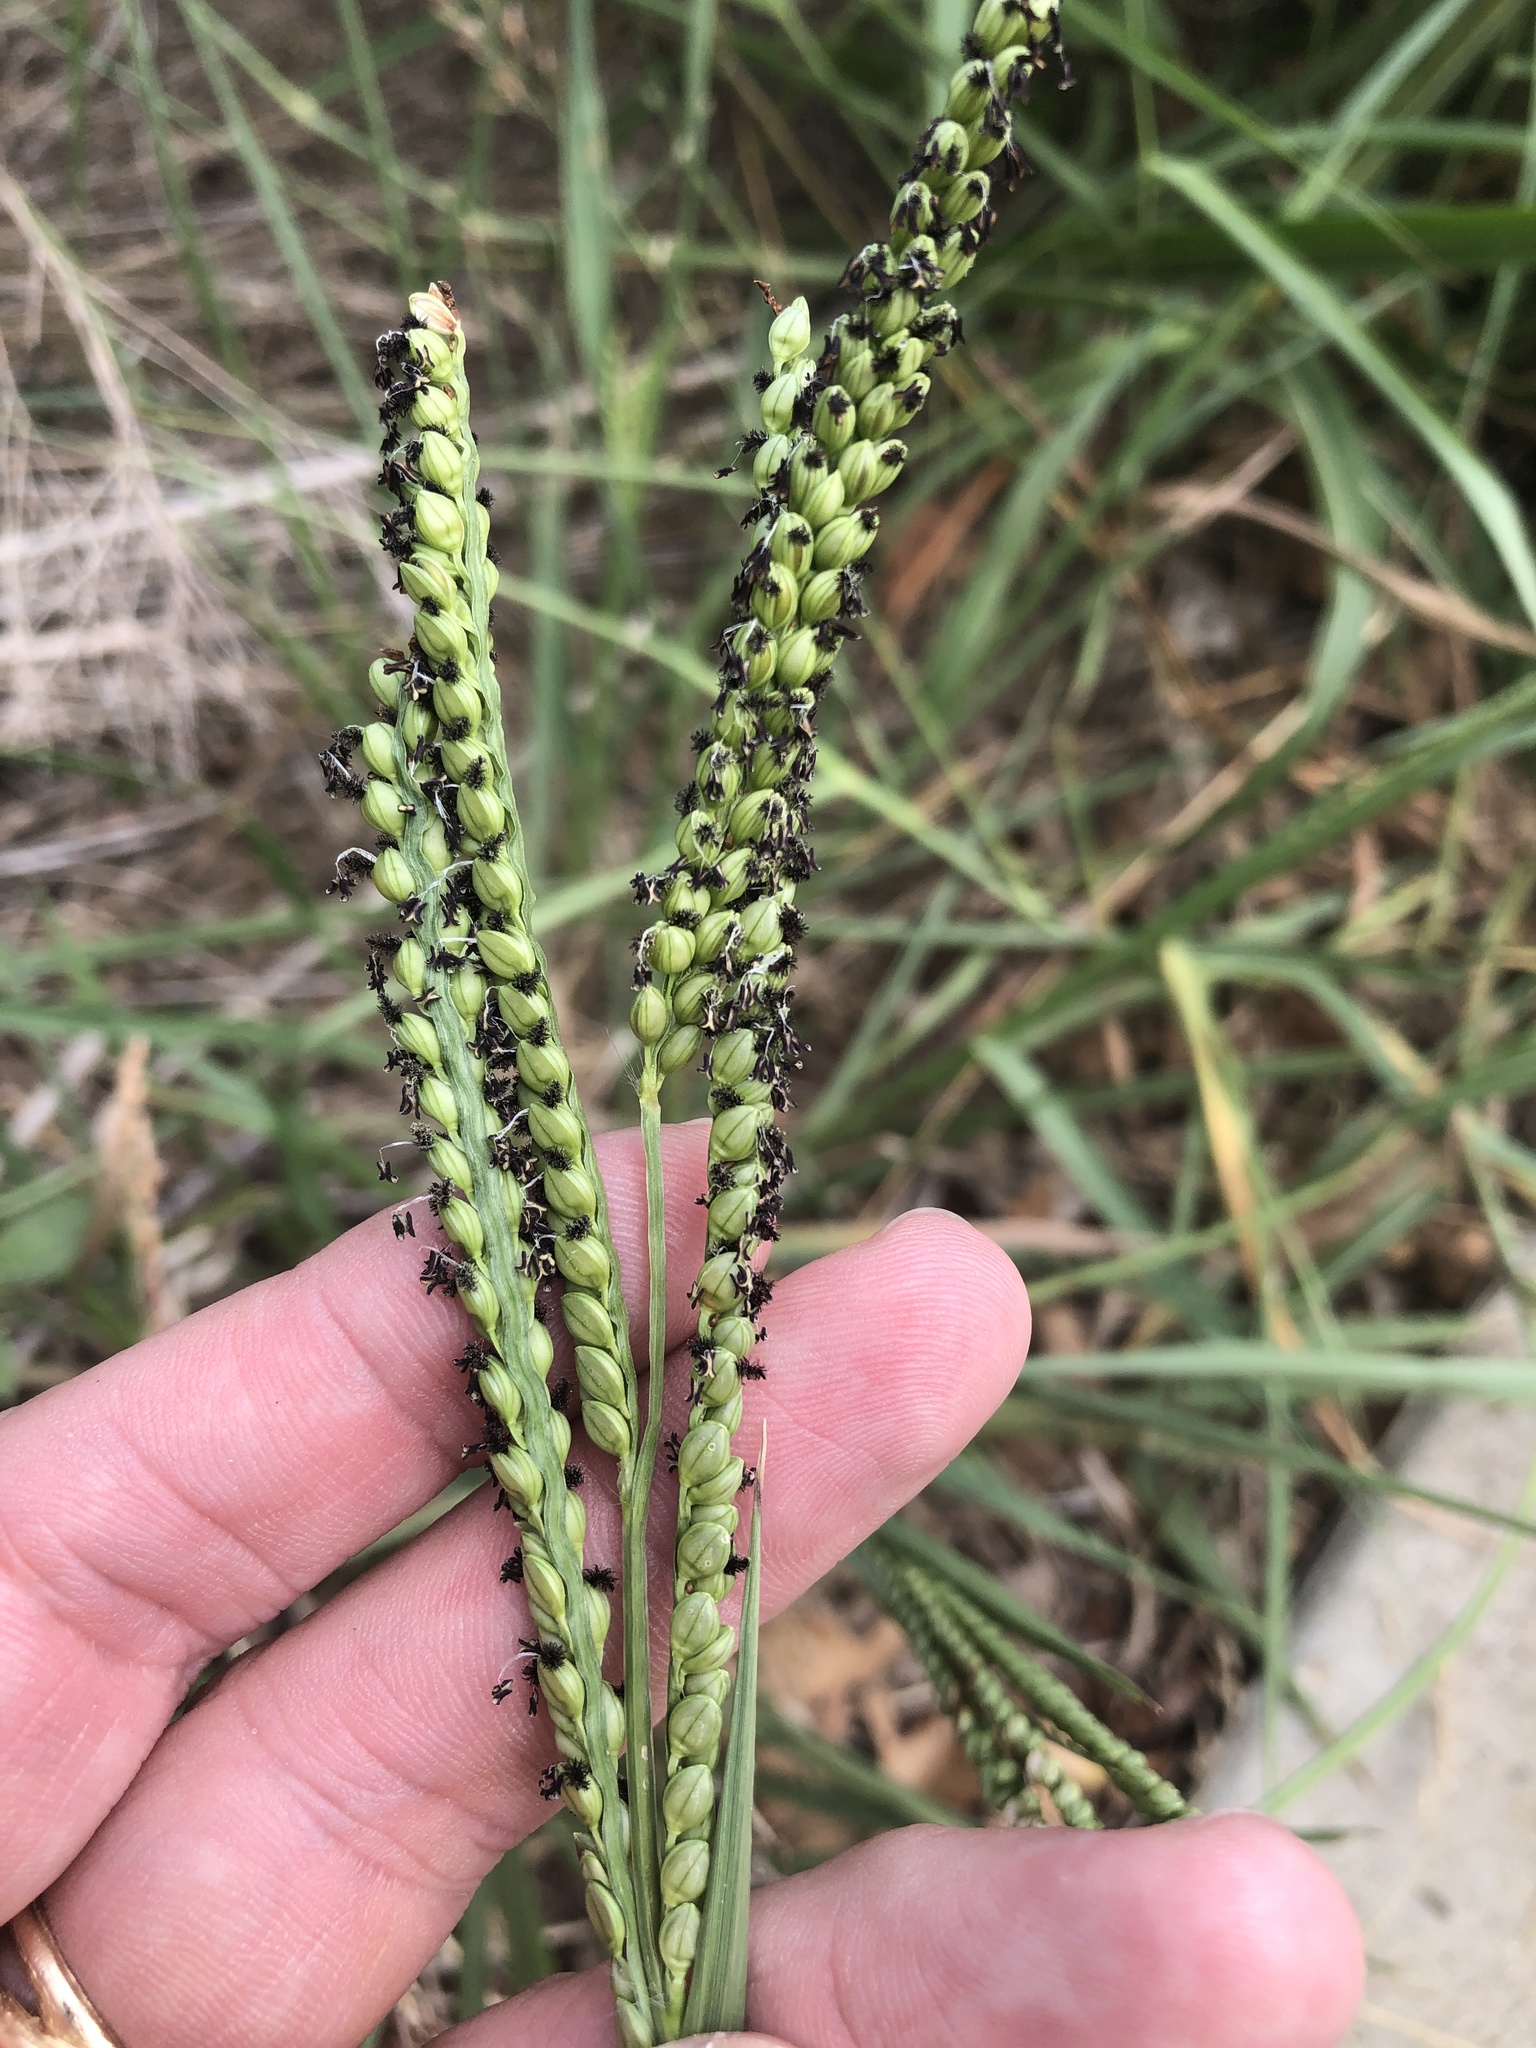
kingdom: Plantae
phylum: Tracheophyta
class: Liliopsida
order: Poales
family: Poaceae
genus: Paspalum
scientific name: Paspalum floridanum
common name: Florida paspalum
